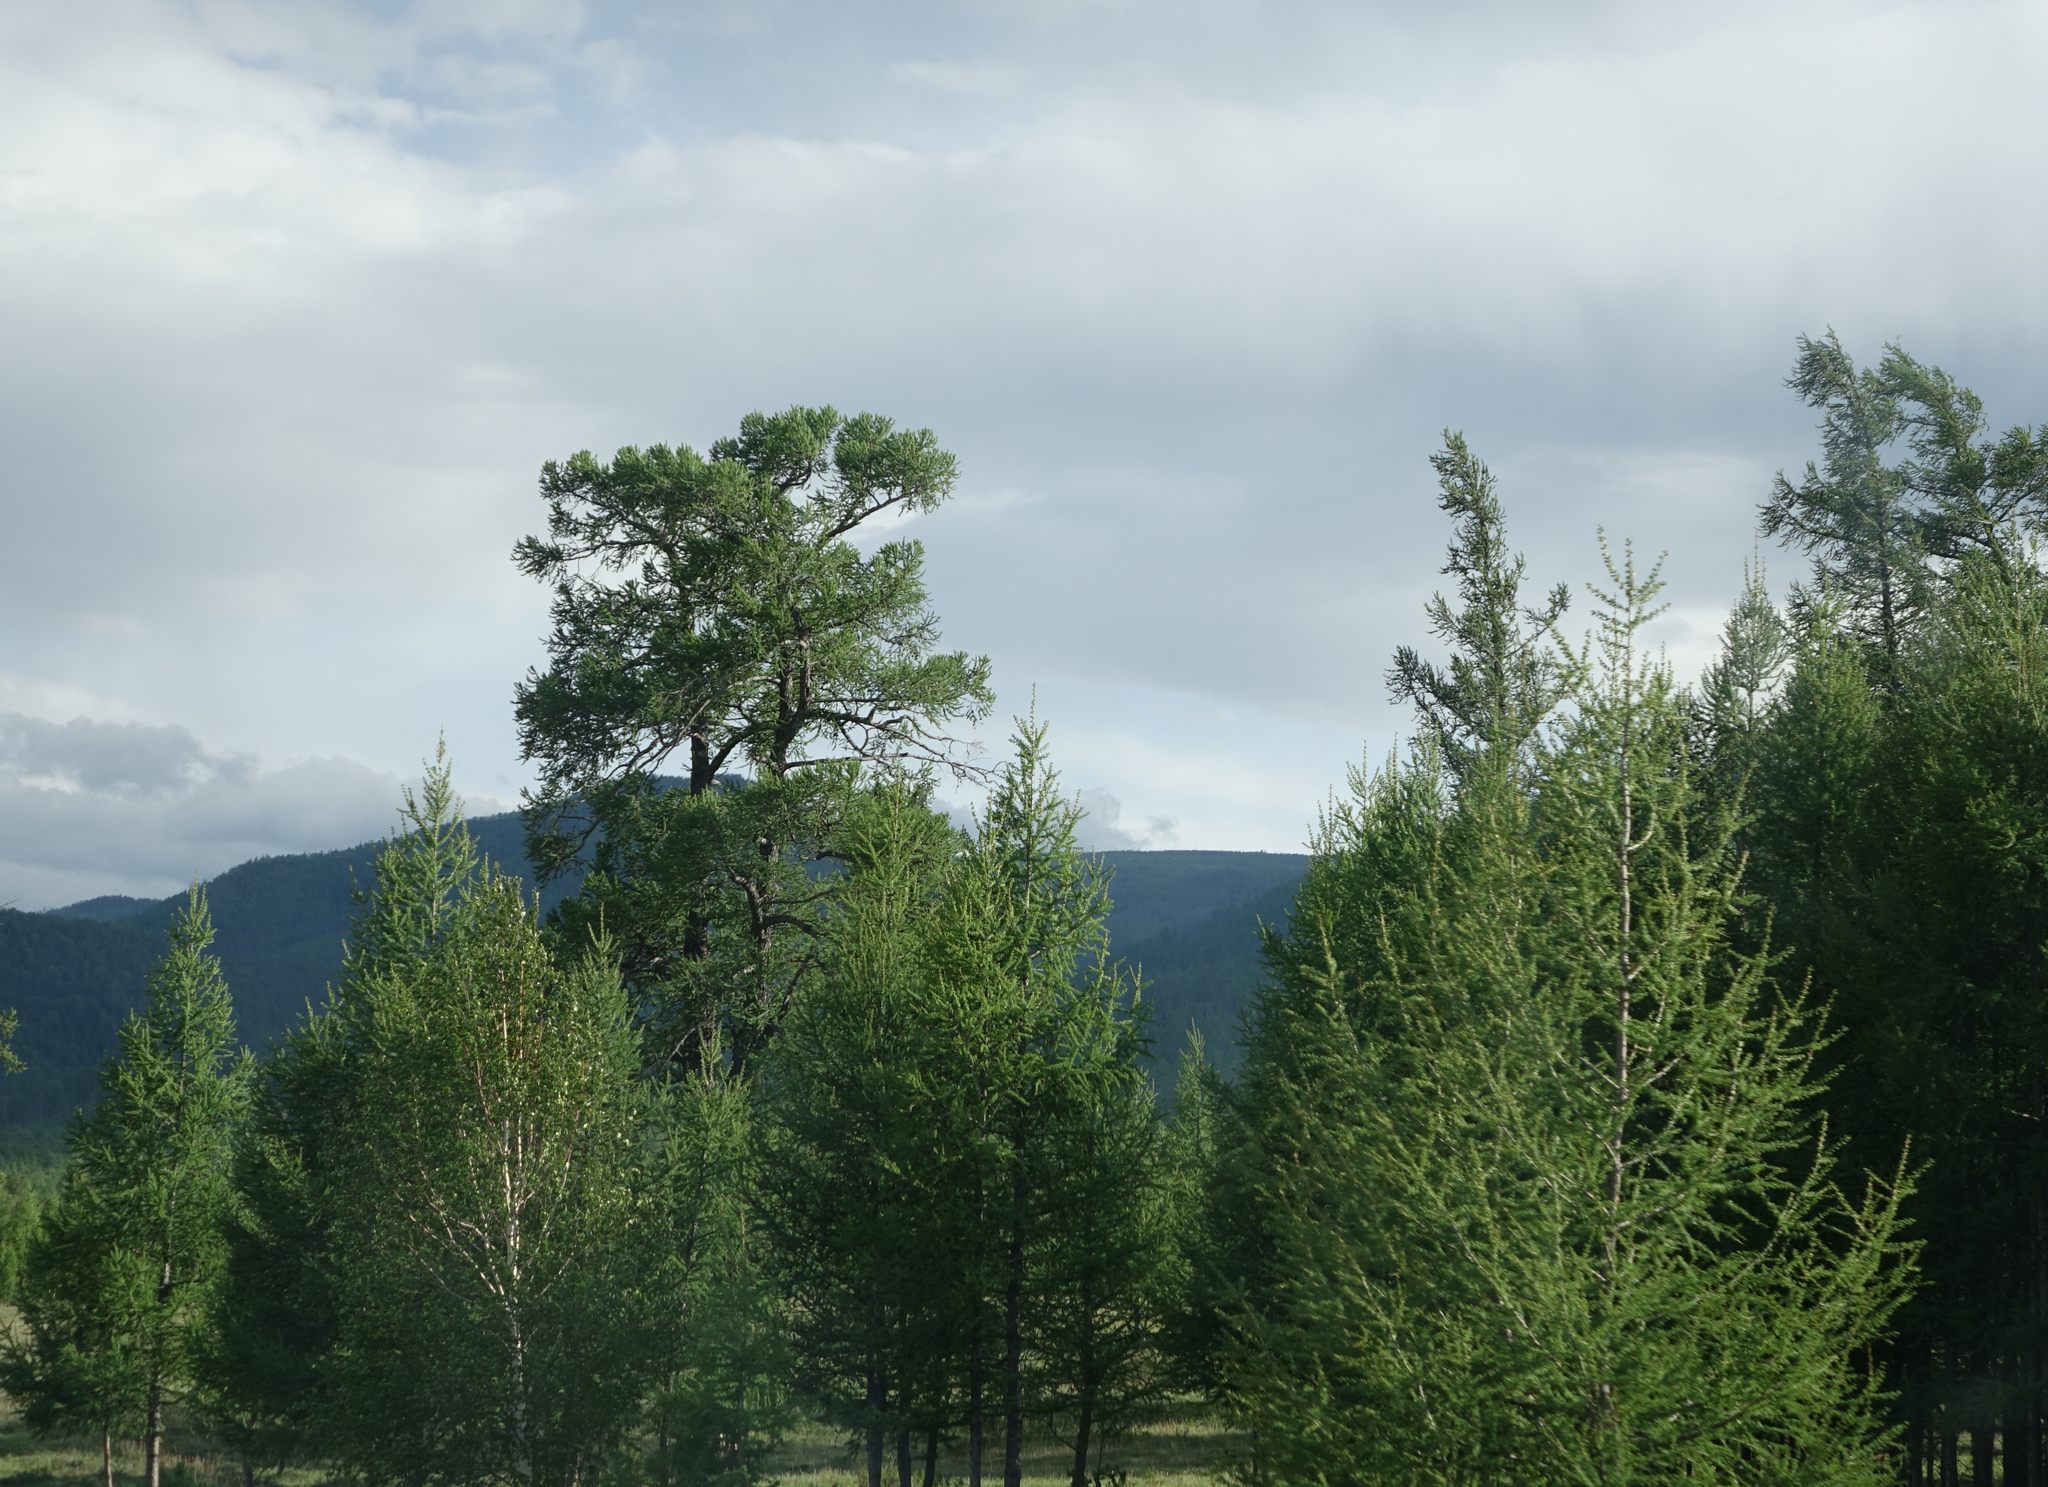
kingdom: Plantae
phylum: Tracheophyta
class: Pinopsida
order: Pinales
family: Pinaceae
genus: Larix
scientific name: Larix sibirica
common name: Siberian larch
